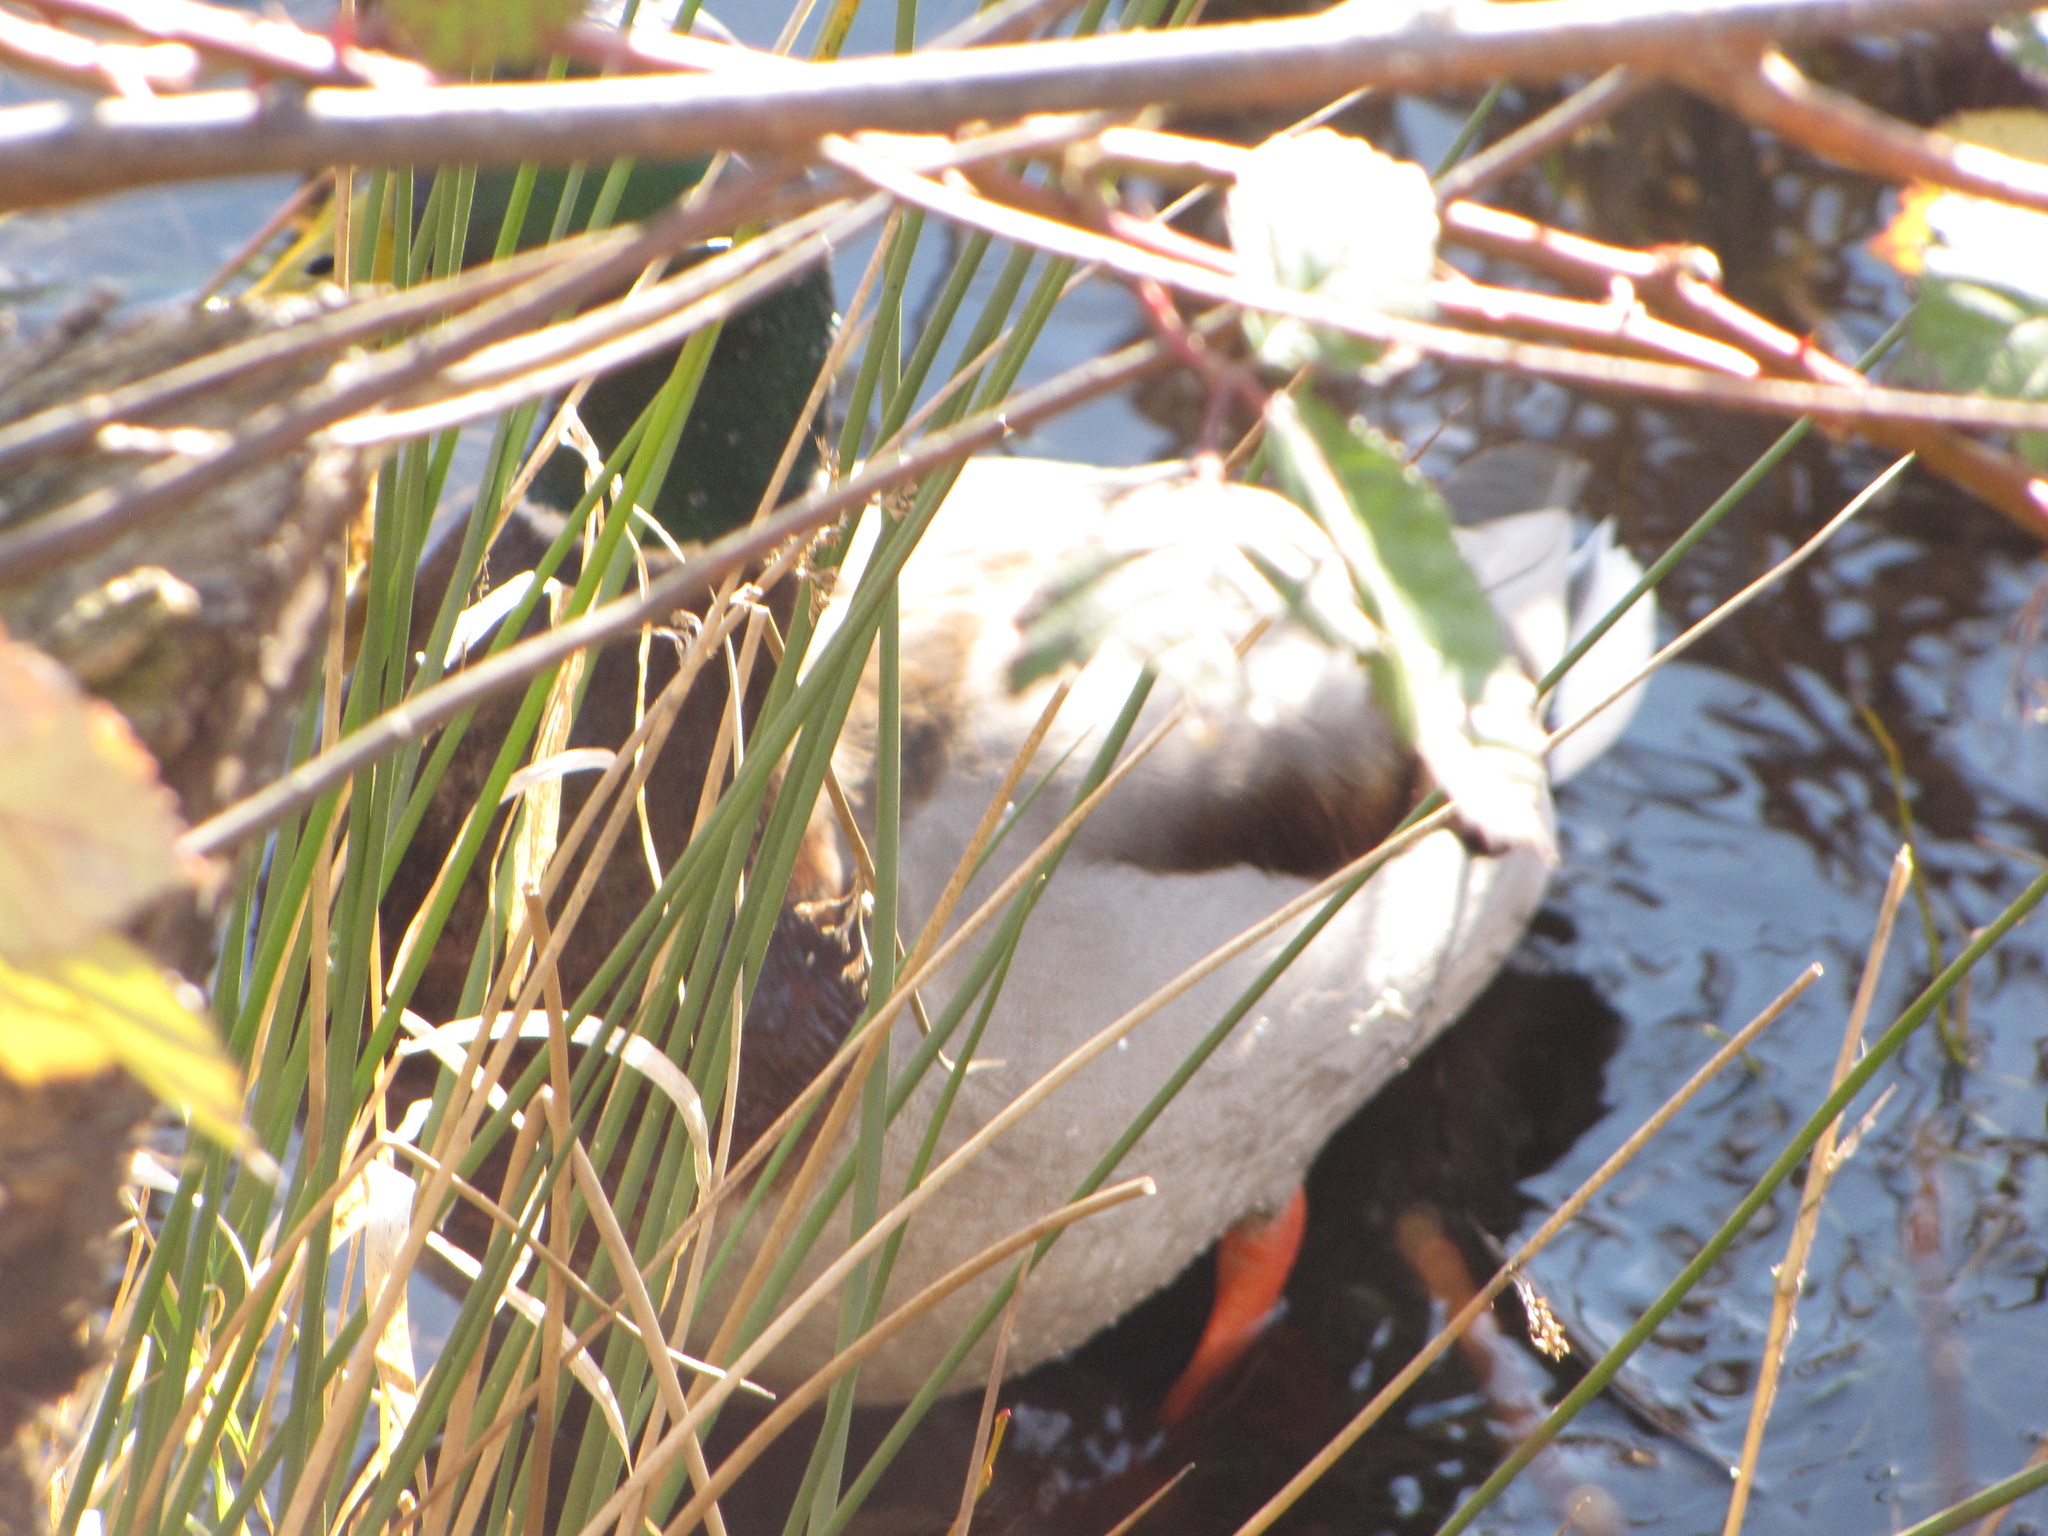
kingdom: Animalia
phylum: Chordata
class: Aves
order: Anseriformes
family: Anatidae
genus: Anas
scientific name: Anas platyrhynchos
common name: Mallard
